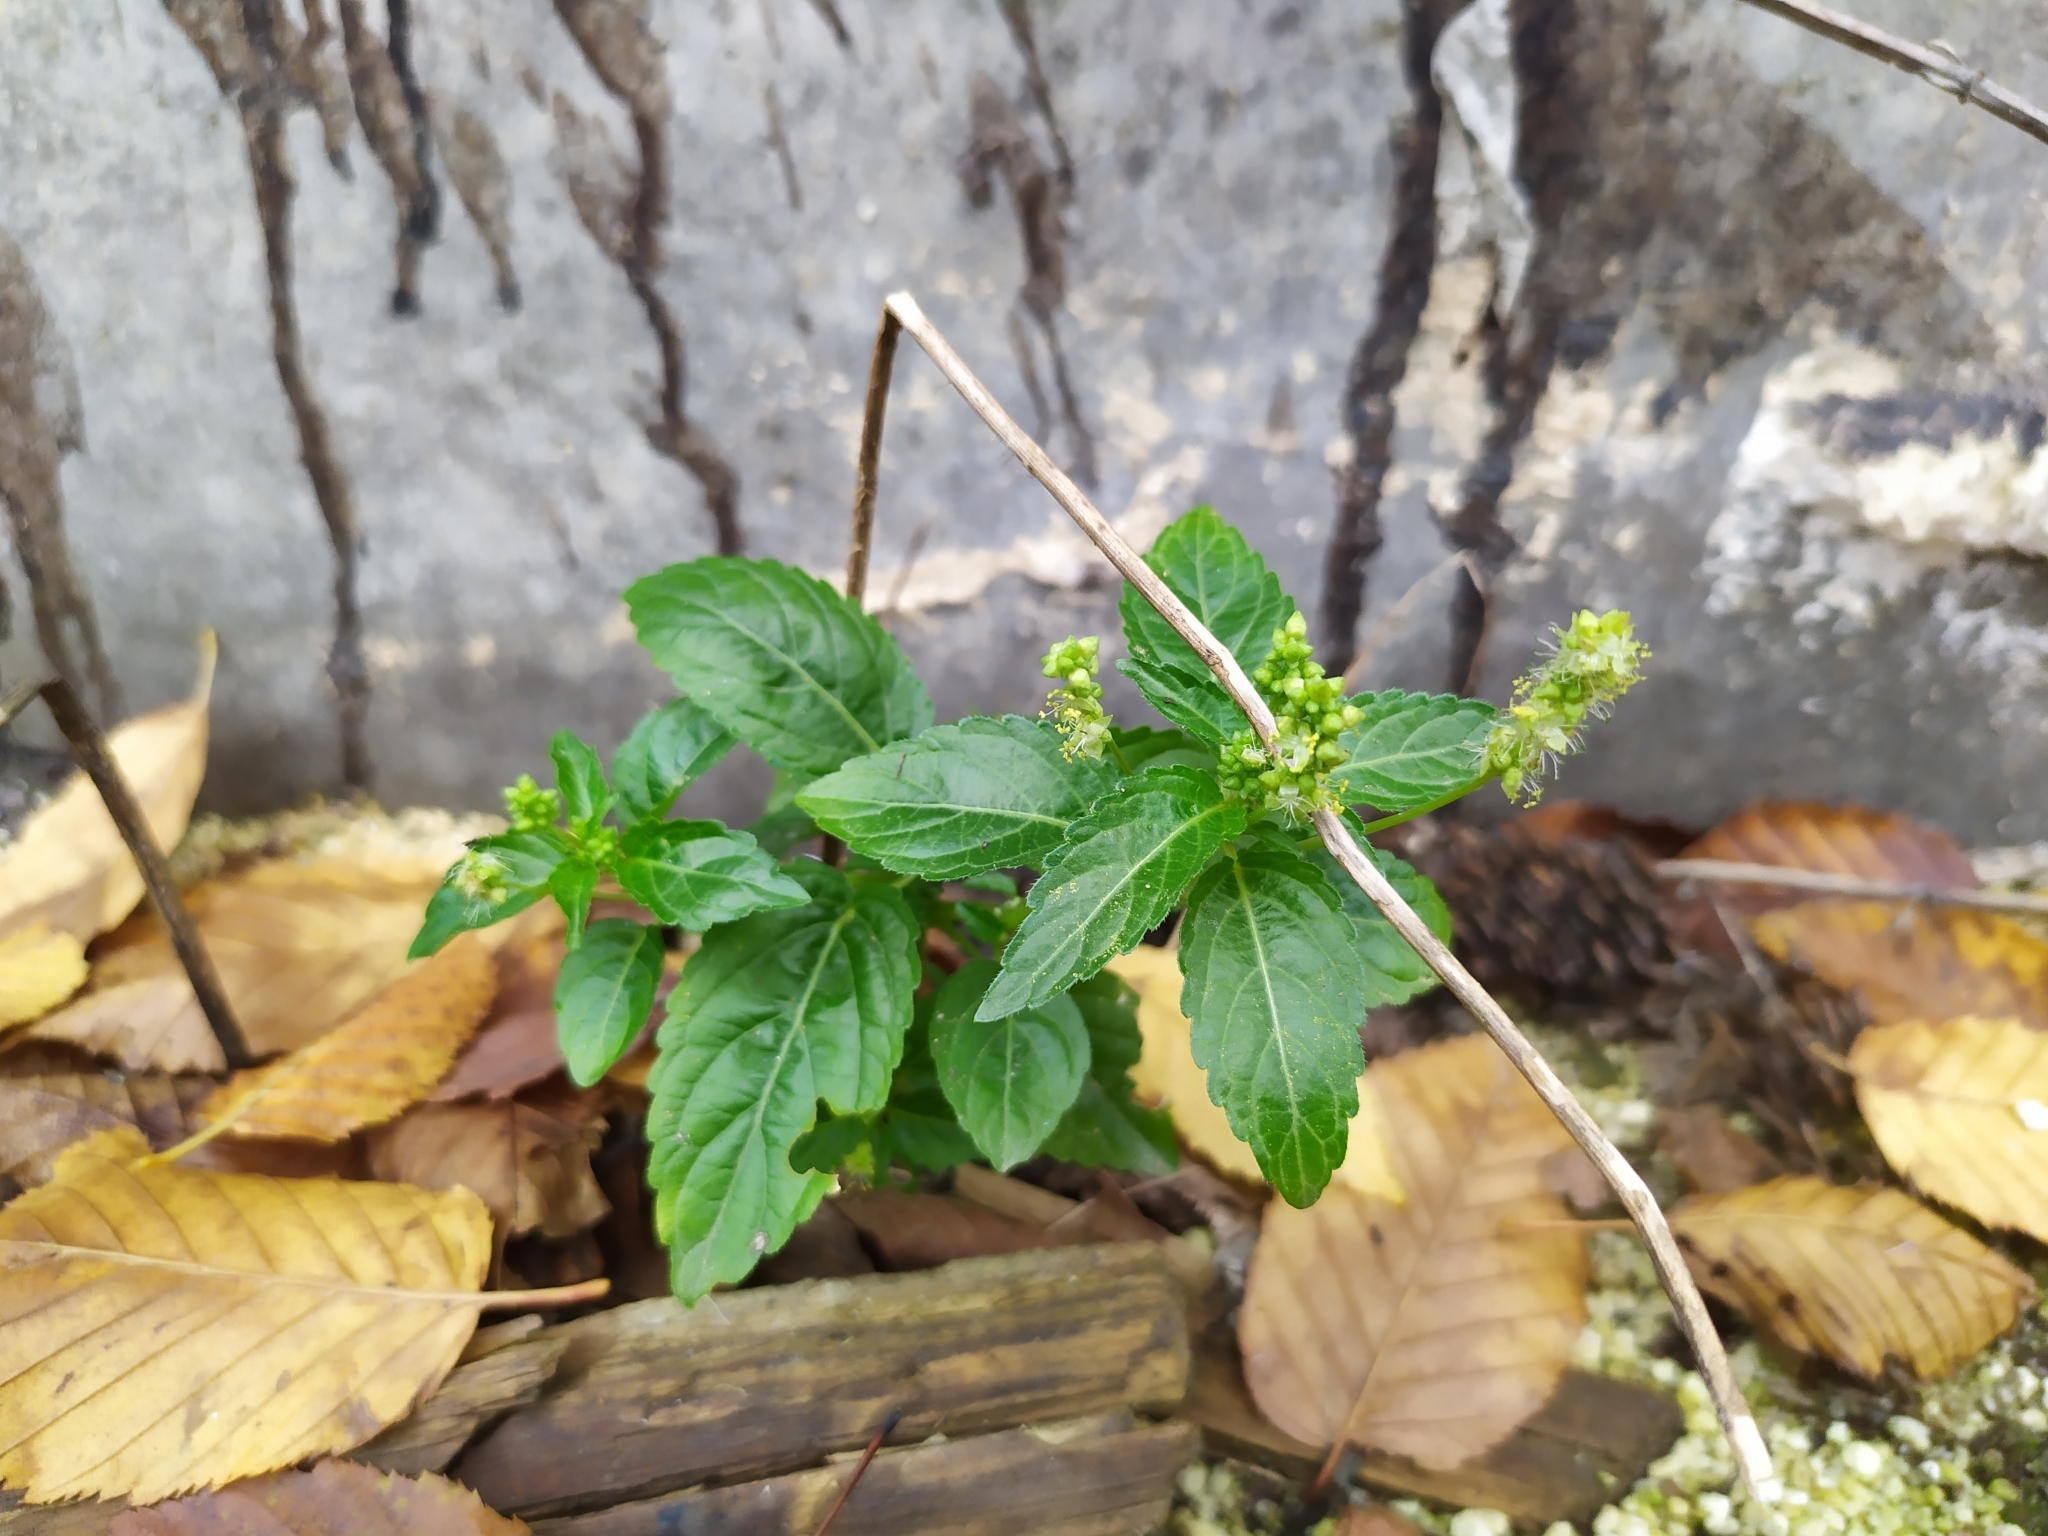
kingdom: Plantae
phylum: Tracheophyta
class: Magnoliopsida
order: Malpighiales
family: Euphorbiaceae
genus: Mercurialis
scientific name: Mercurialis annua
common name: Annual mercury
